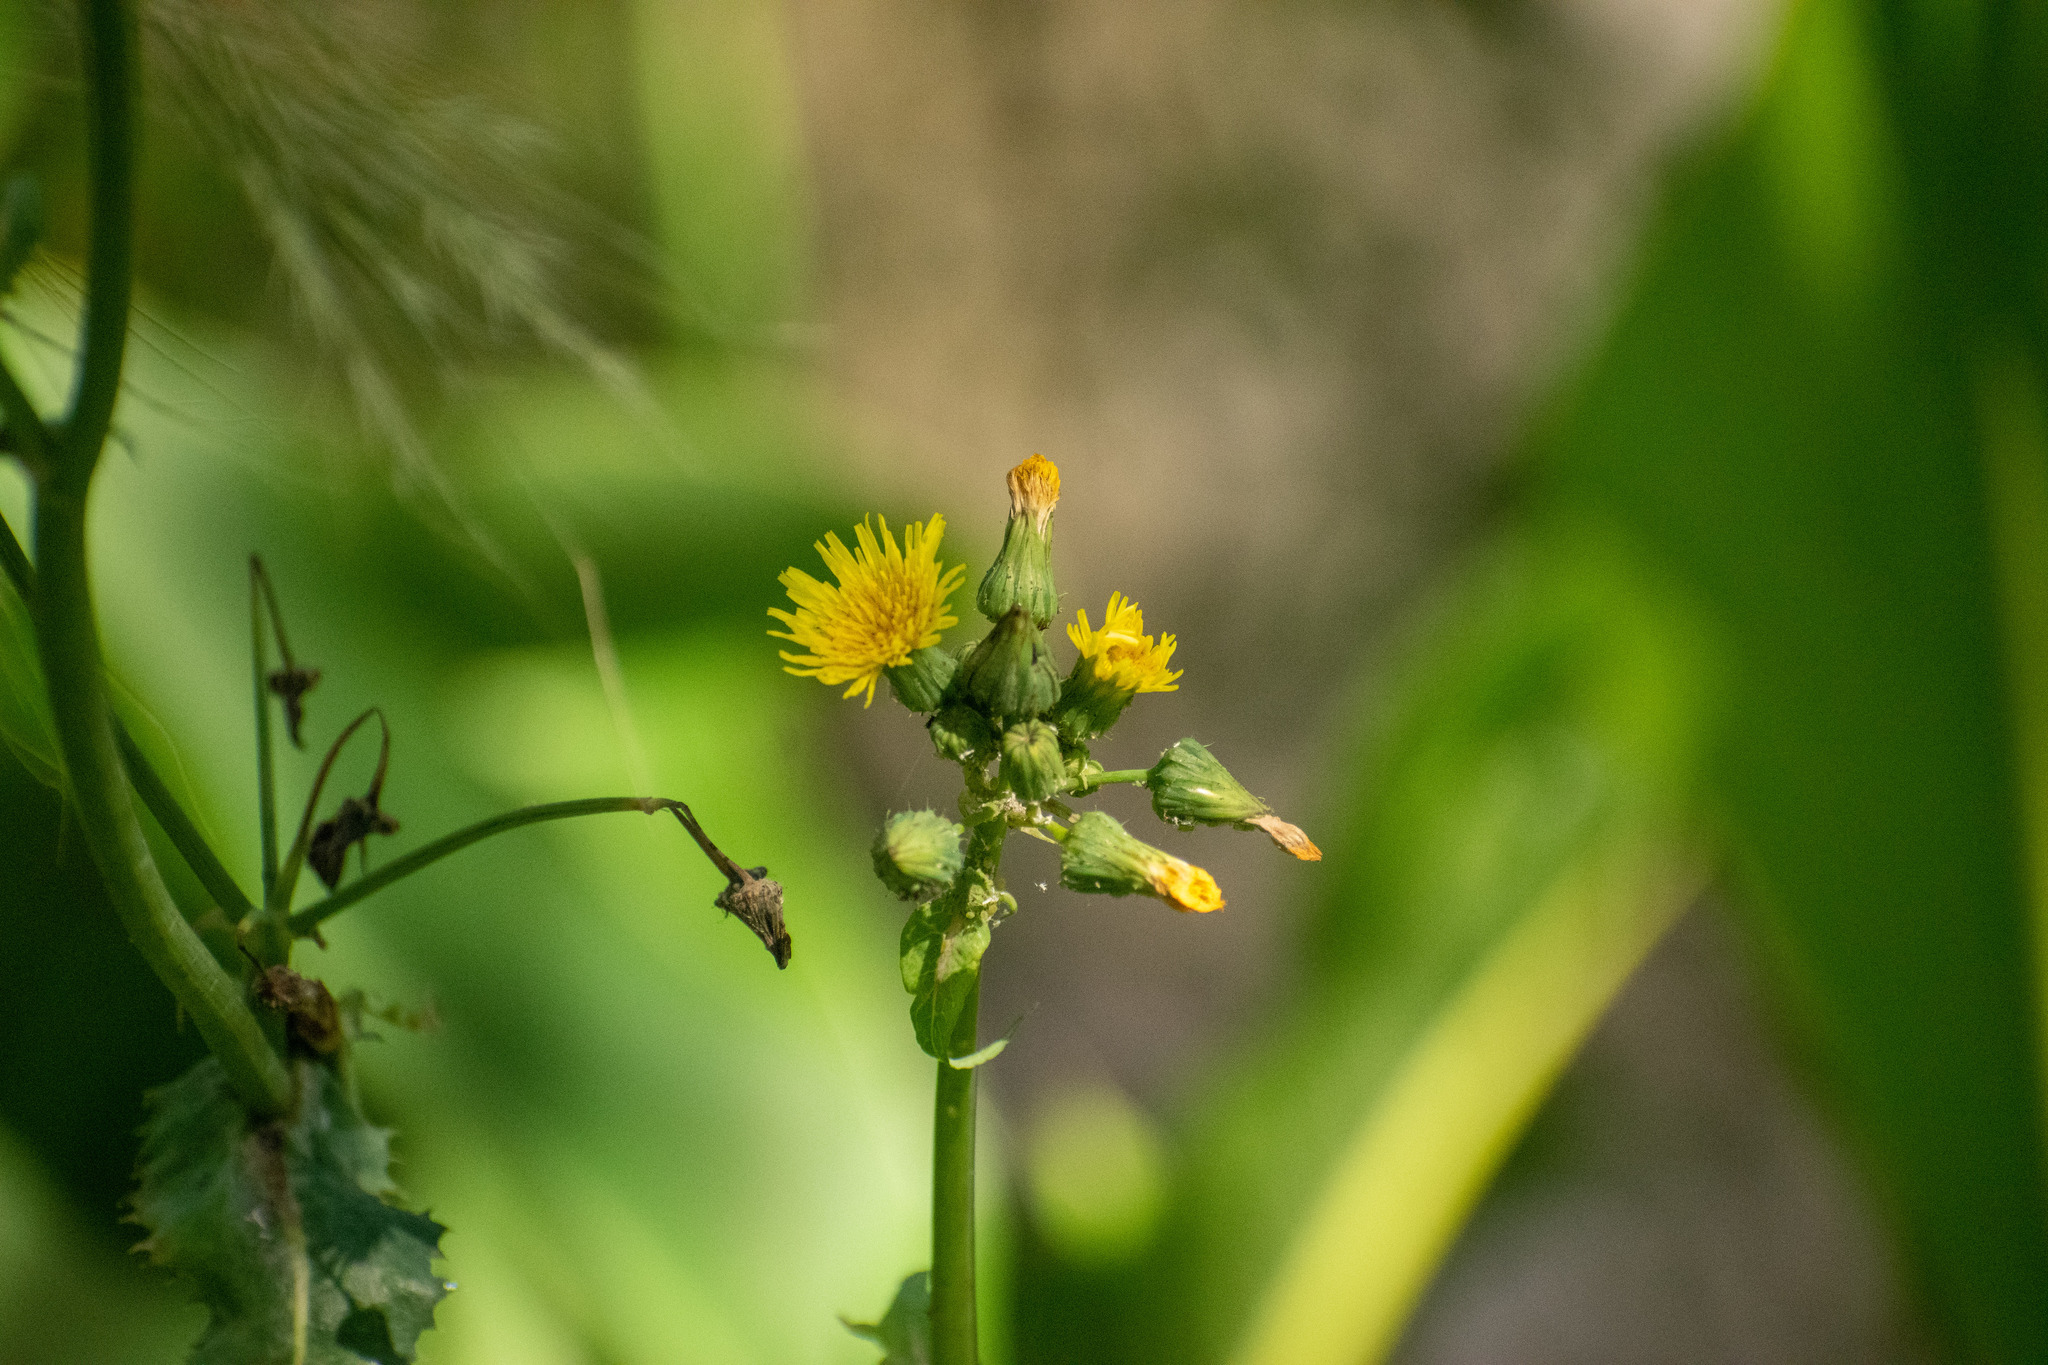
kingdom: Plantae
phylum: Tracheophyta
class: Magnoliopsida
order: Asterales
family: Asteraceae
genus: Sonchus
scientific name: Sonchus oleraceus
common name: Common sowthistle
